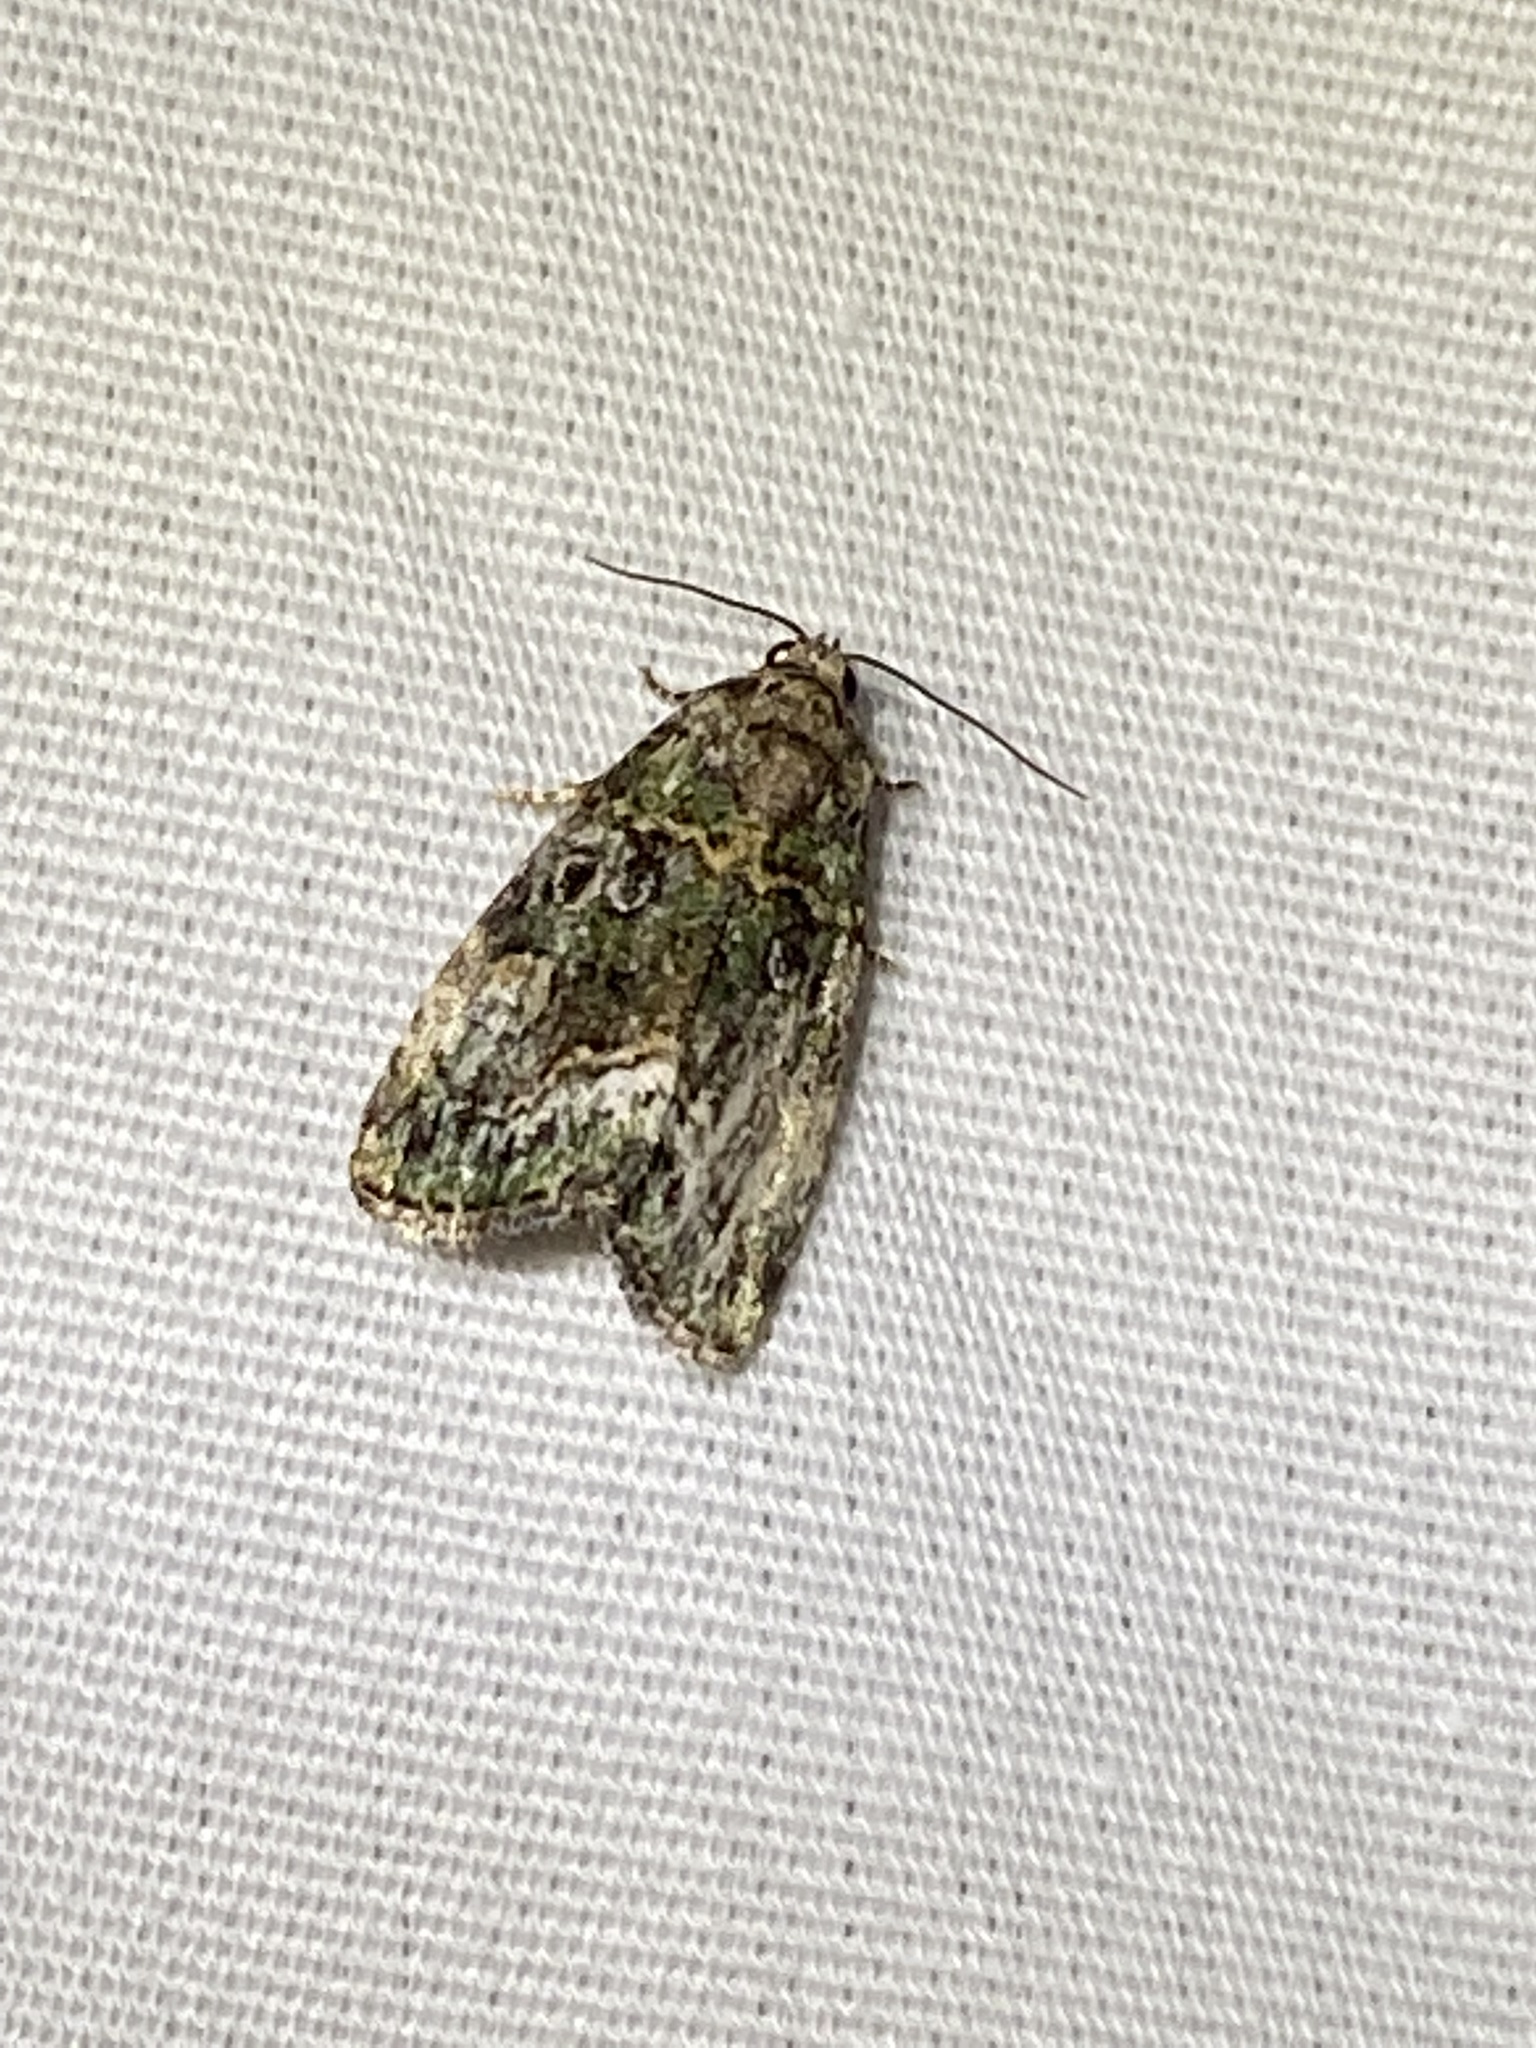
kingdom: Animalia
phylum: Arthropoda
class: Insecta
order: Lepidoptera
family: Noctuidae
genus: Lithacodia
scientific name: Lithacodia musta
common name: Small mossy glyph
